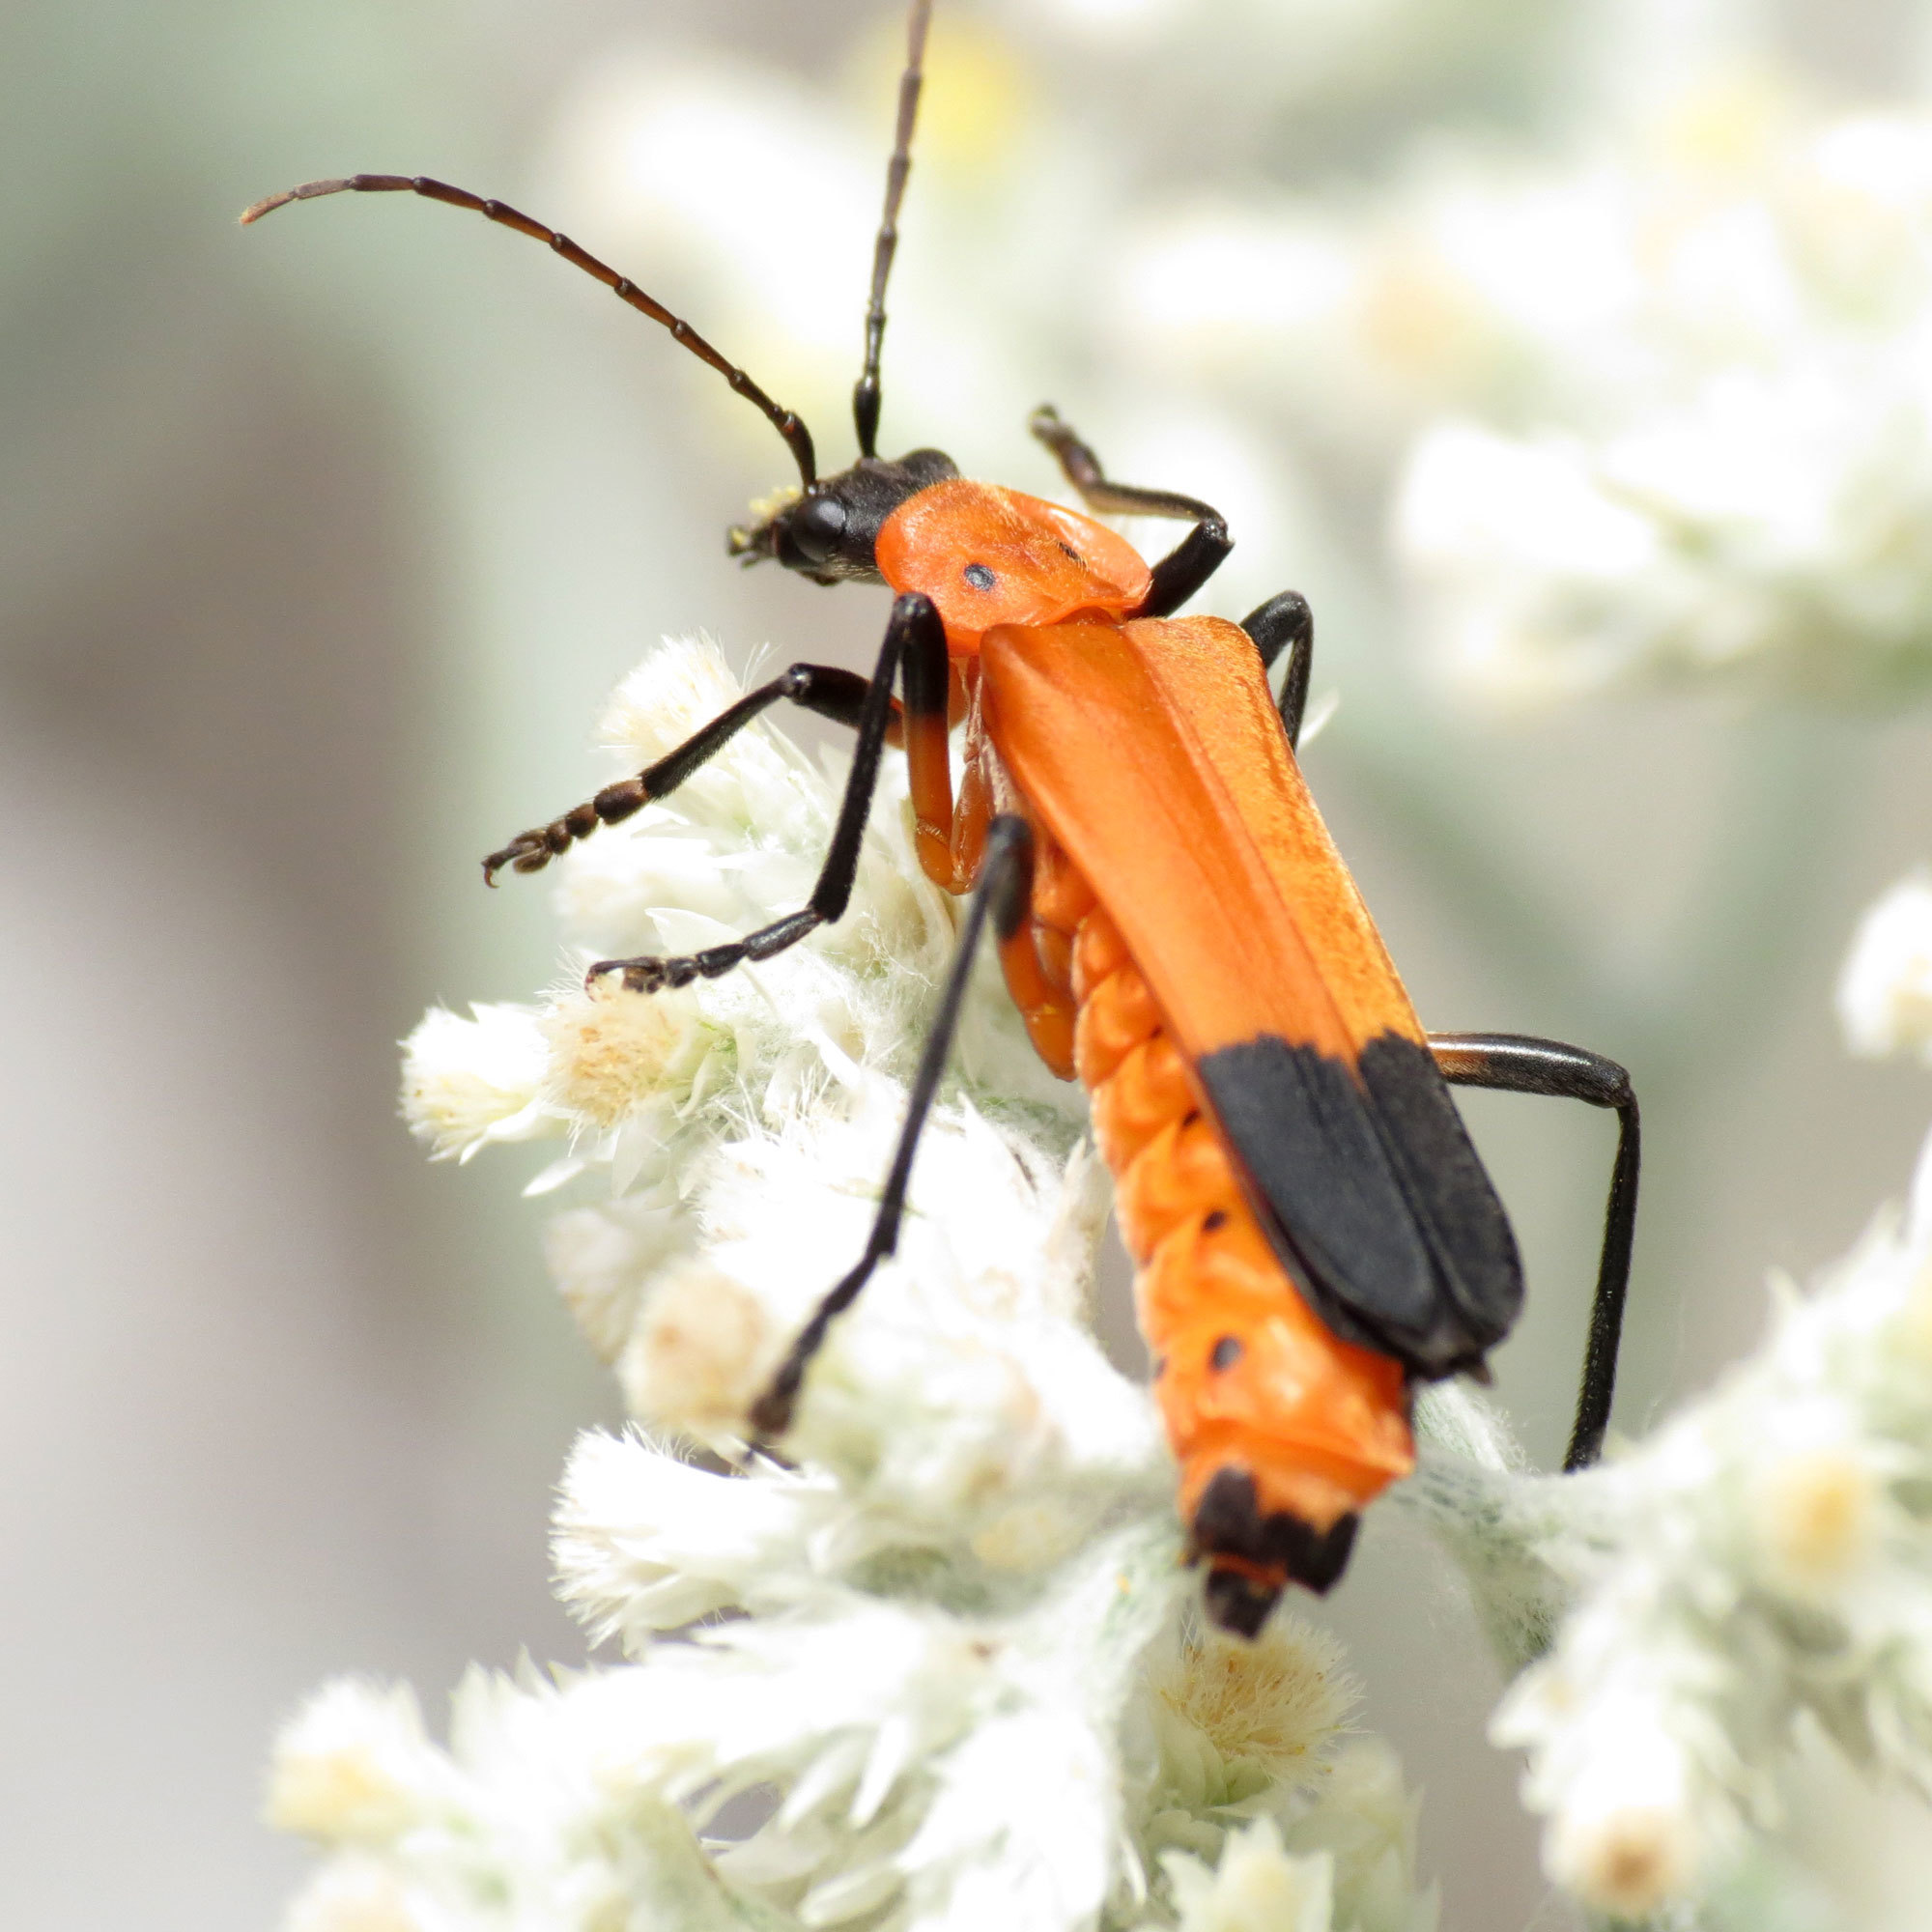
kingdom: Animalia
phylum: Arthropoda
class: Insecta
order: Coleoptera
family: Cantharidae
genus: Chauliognathus
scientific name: Chauliognathus profundus
